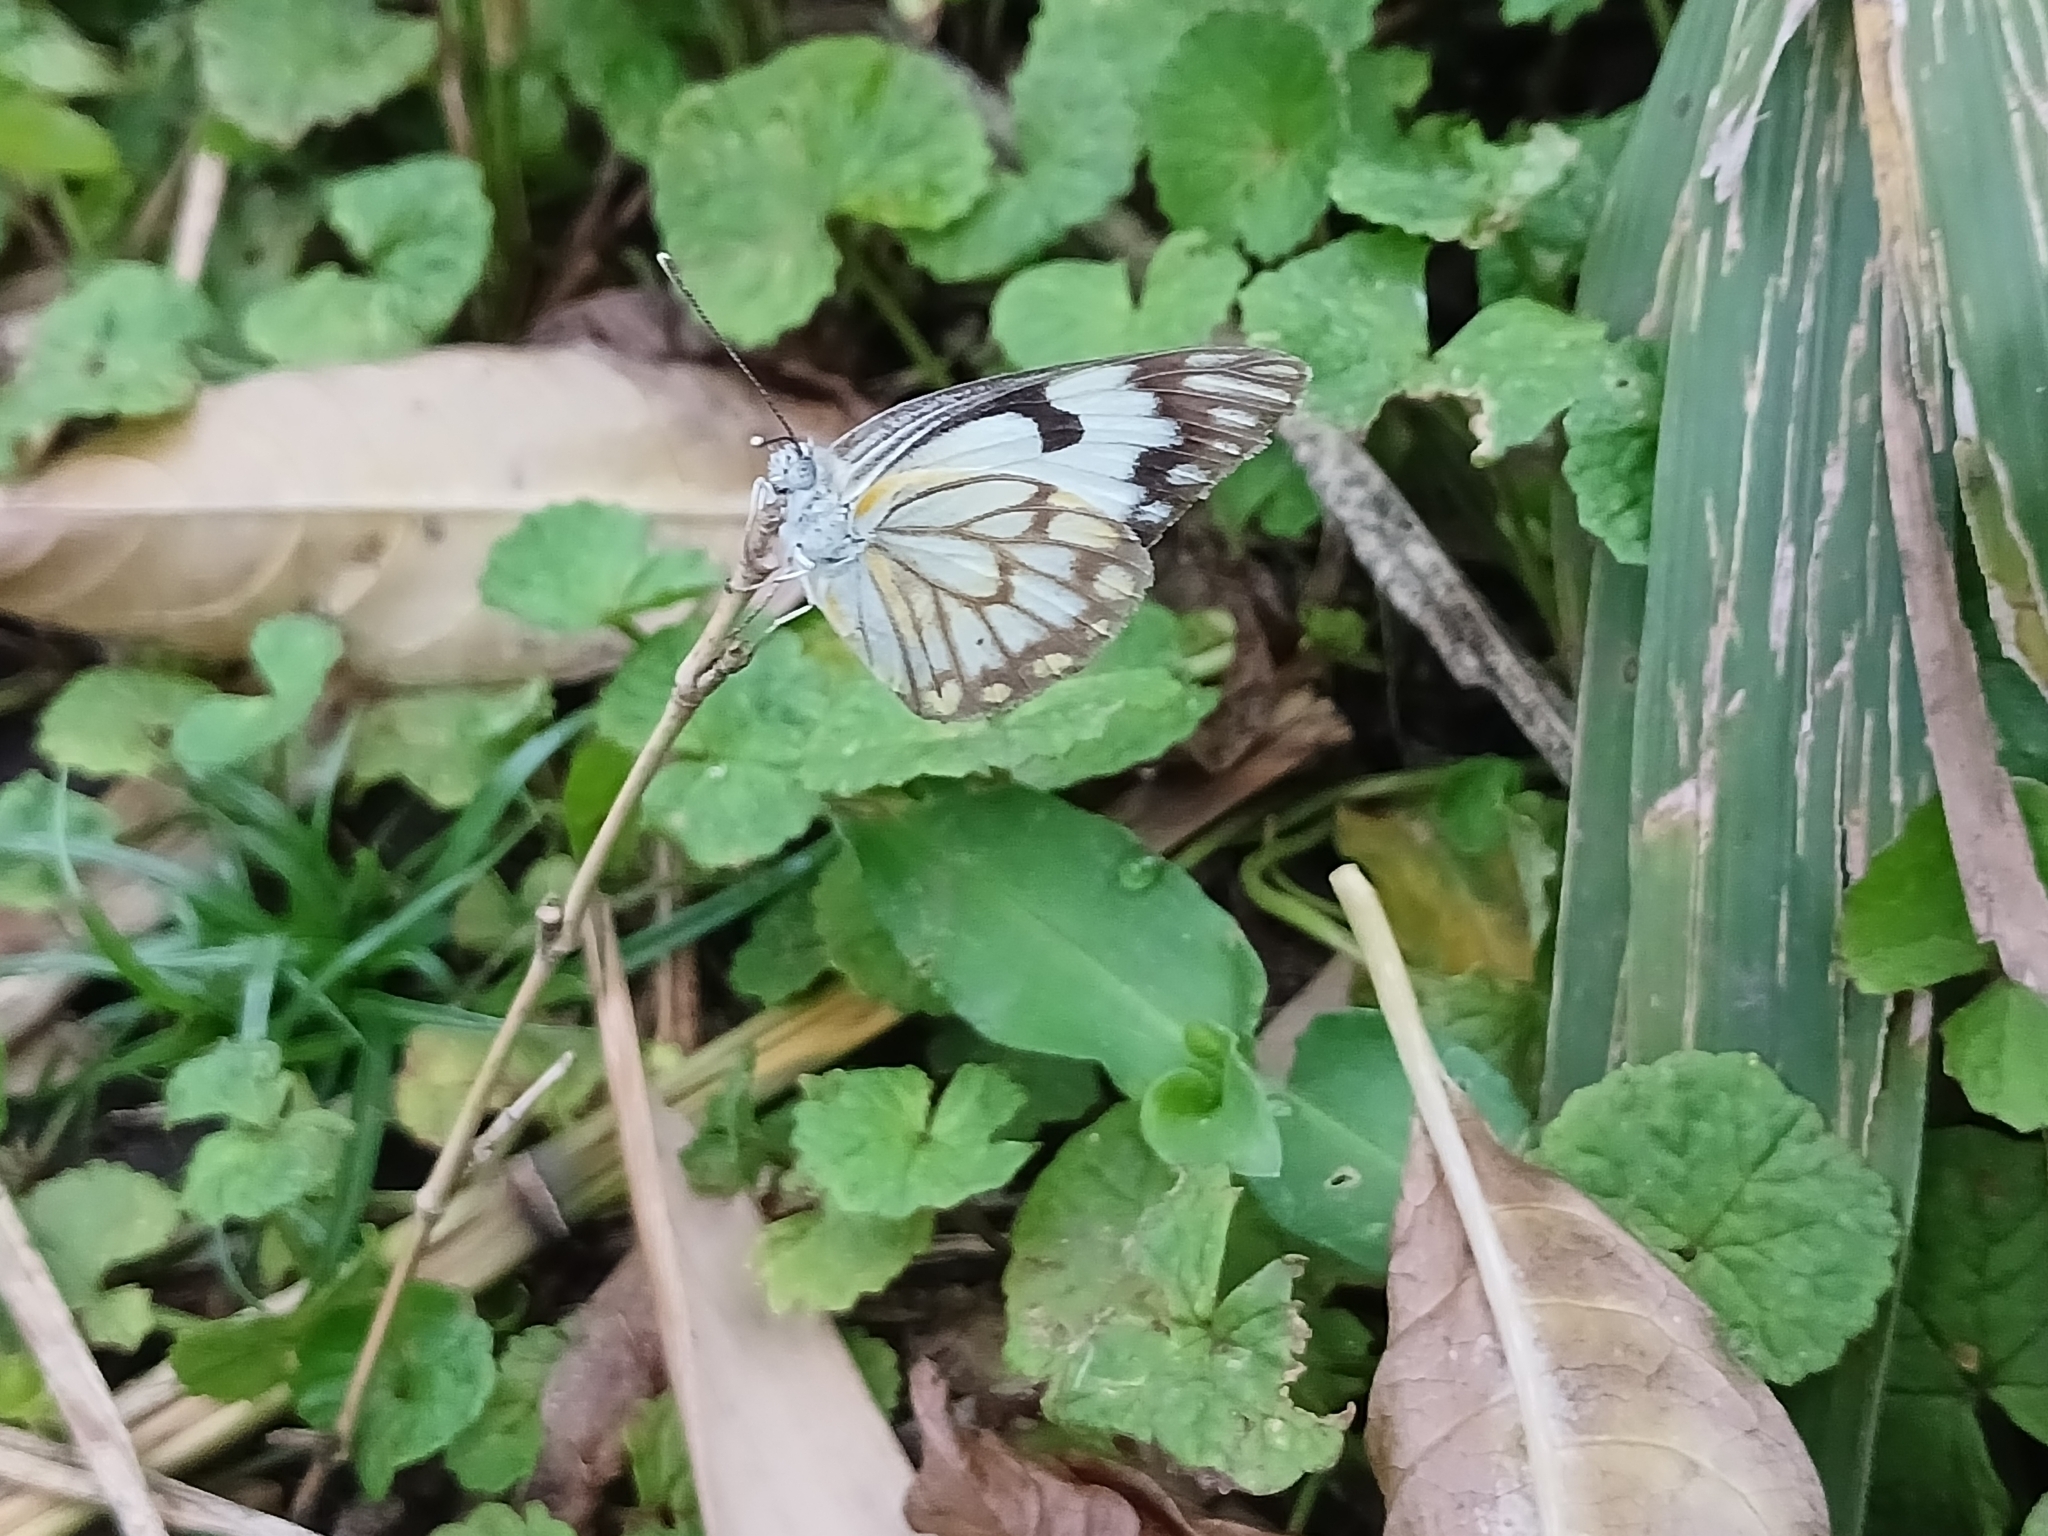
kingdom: Animalia
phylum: Arthropoda
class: Insecta
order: Lepidoptera
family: Pieridae
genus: Belenois
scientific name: Belenois aurota
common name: Brown-veined white
